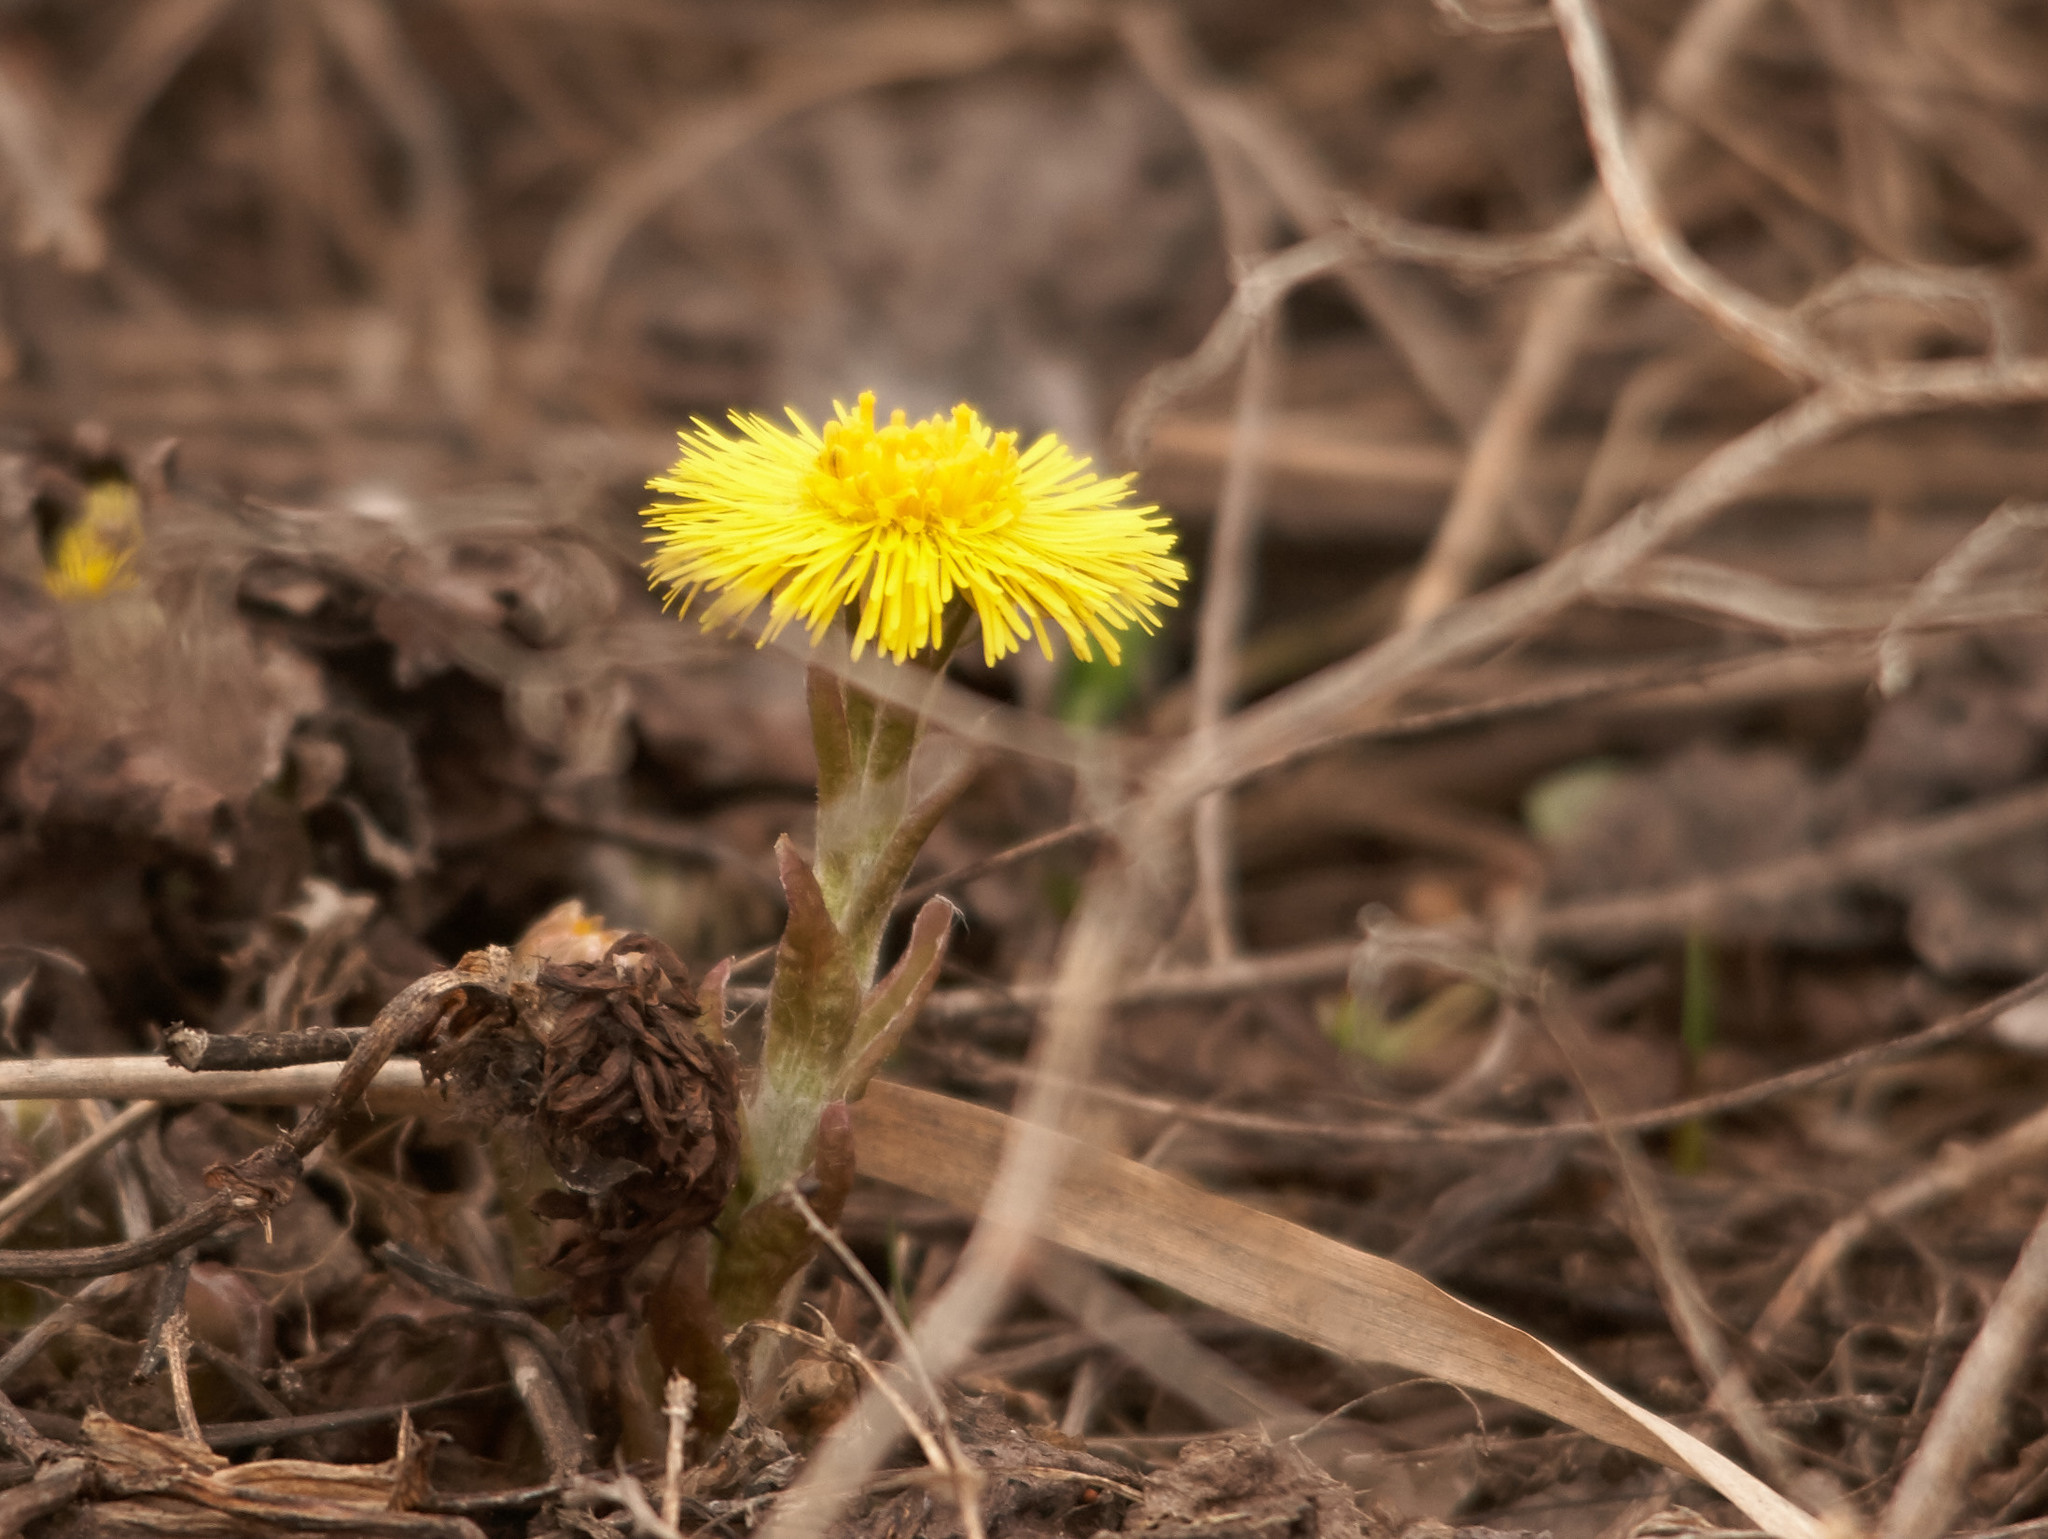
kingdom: Plantae
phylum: Tracheophyta
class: Magnoliopsida
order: Asterales
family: Asteraceae
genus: Tussilago
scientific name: Tussilago farfara
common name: Coltsfoot
